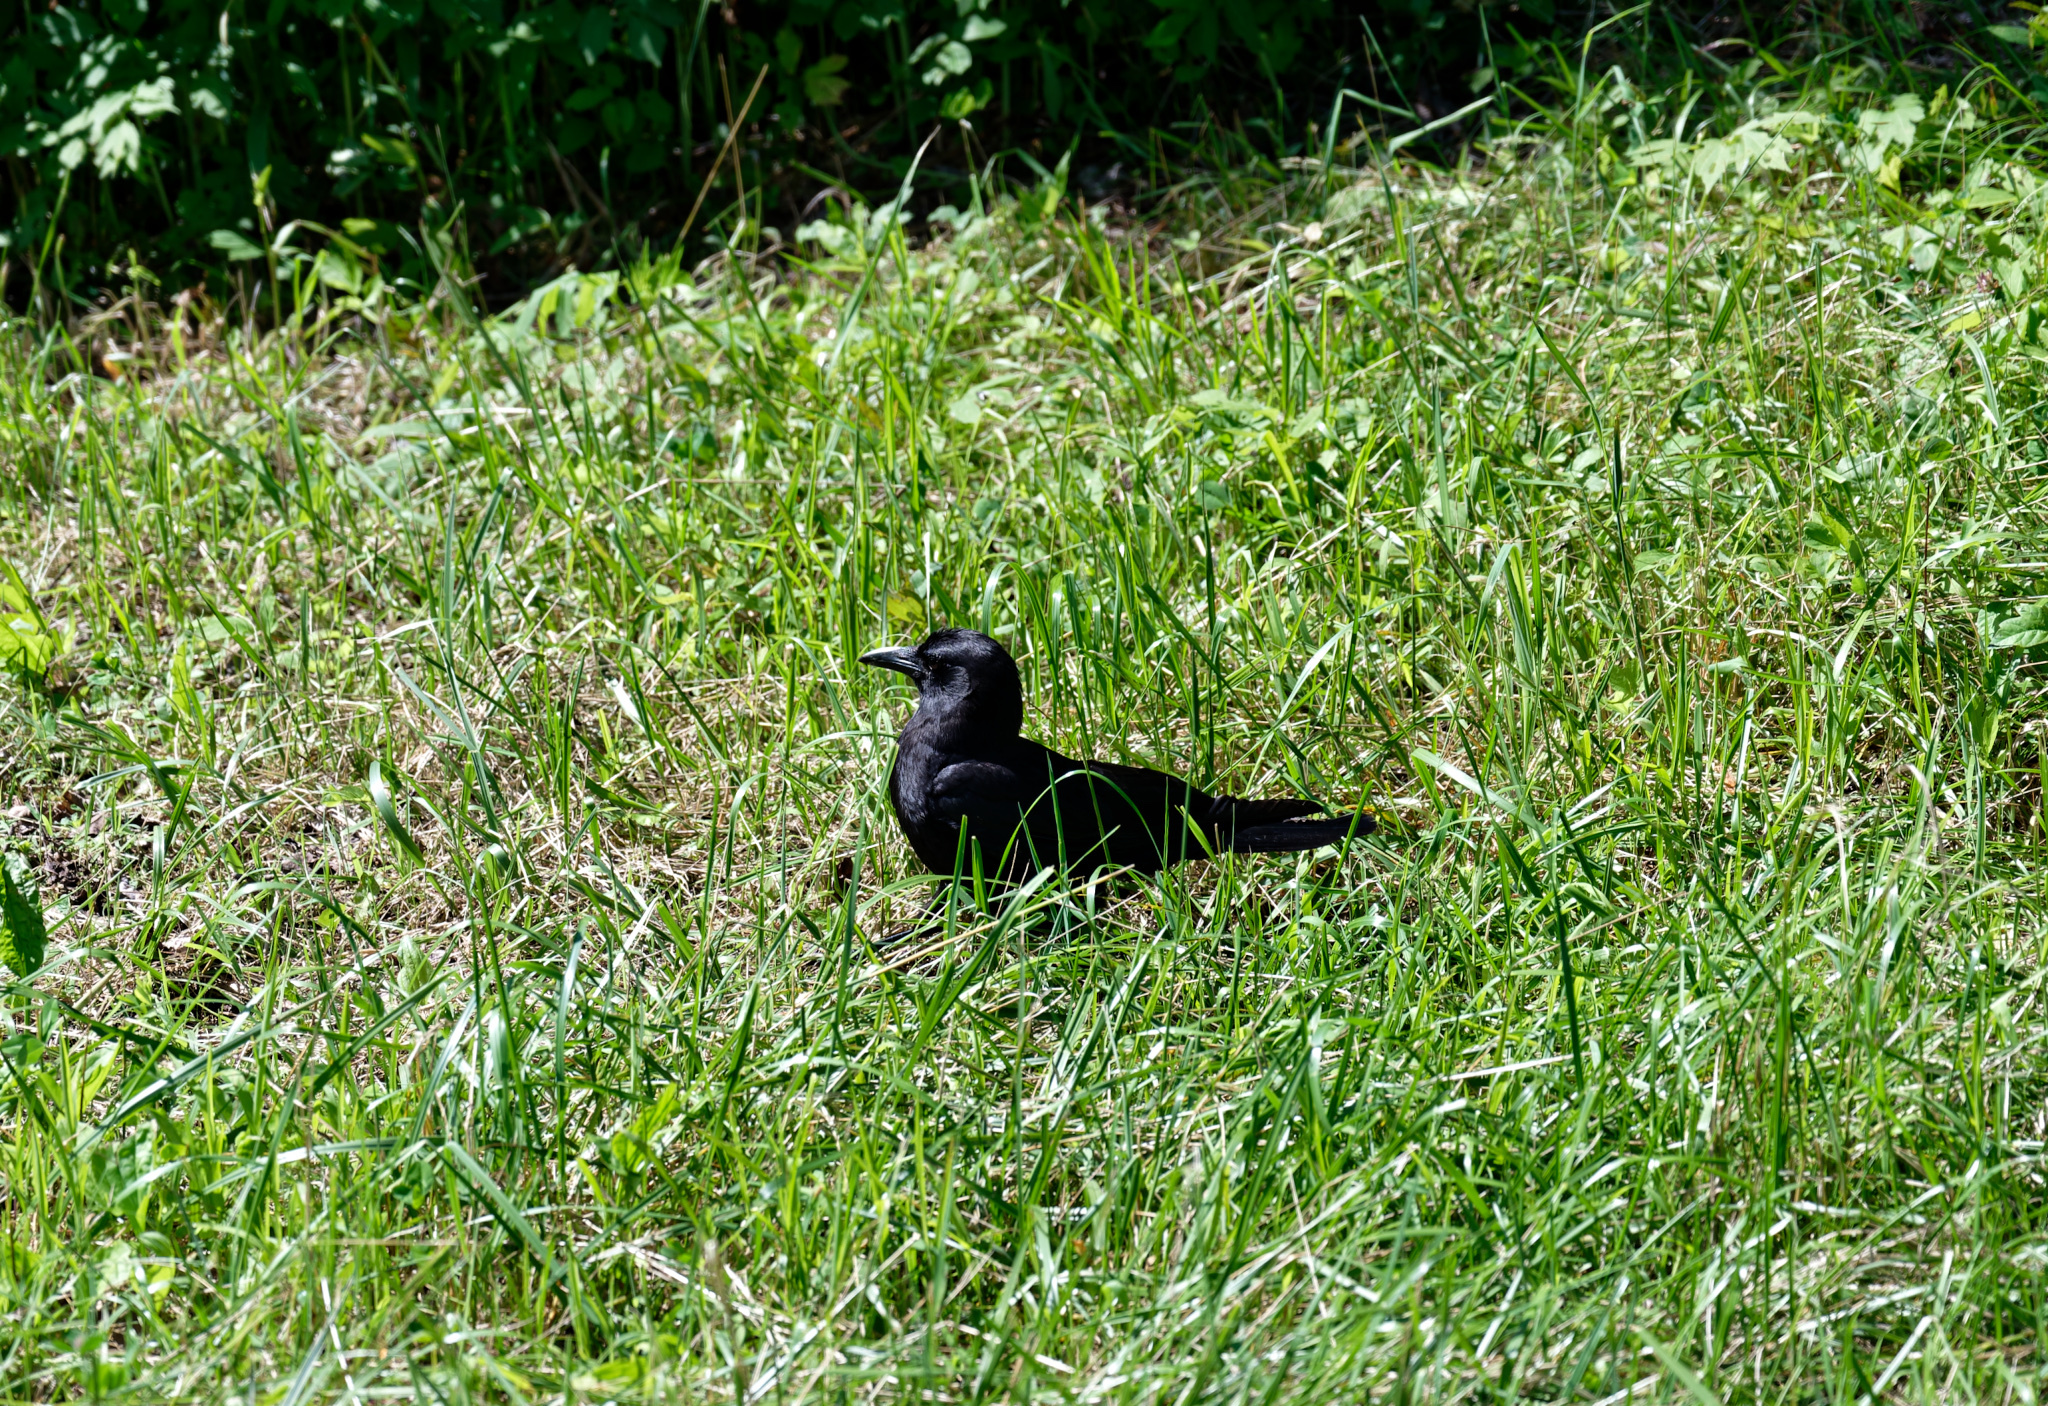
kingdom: Animalia
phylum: Chordata
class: Aves
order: Passeriformes
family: Corvidae
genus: Corvus
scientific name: Corvus brachyrhynchos
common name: American crow
